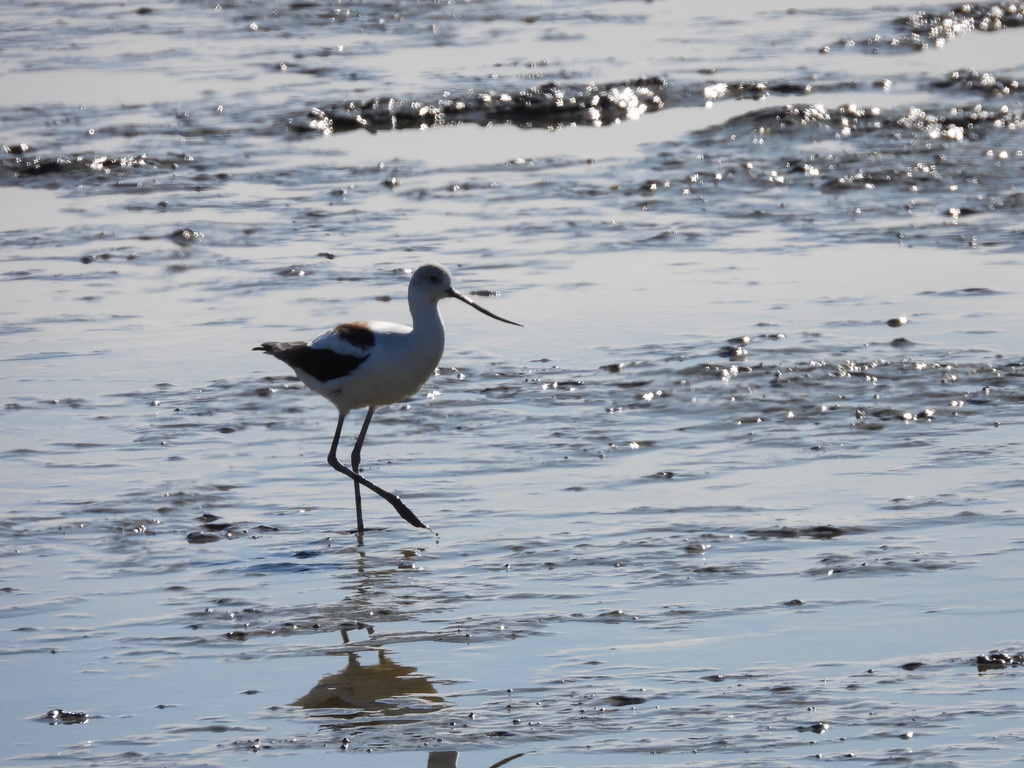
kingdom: Animalia
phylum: Chordata
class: Aves
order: Charadriiformes
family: Recurvirostridae
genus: Recurvirostra
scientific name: Recurvirostra americana
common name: American avocet
